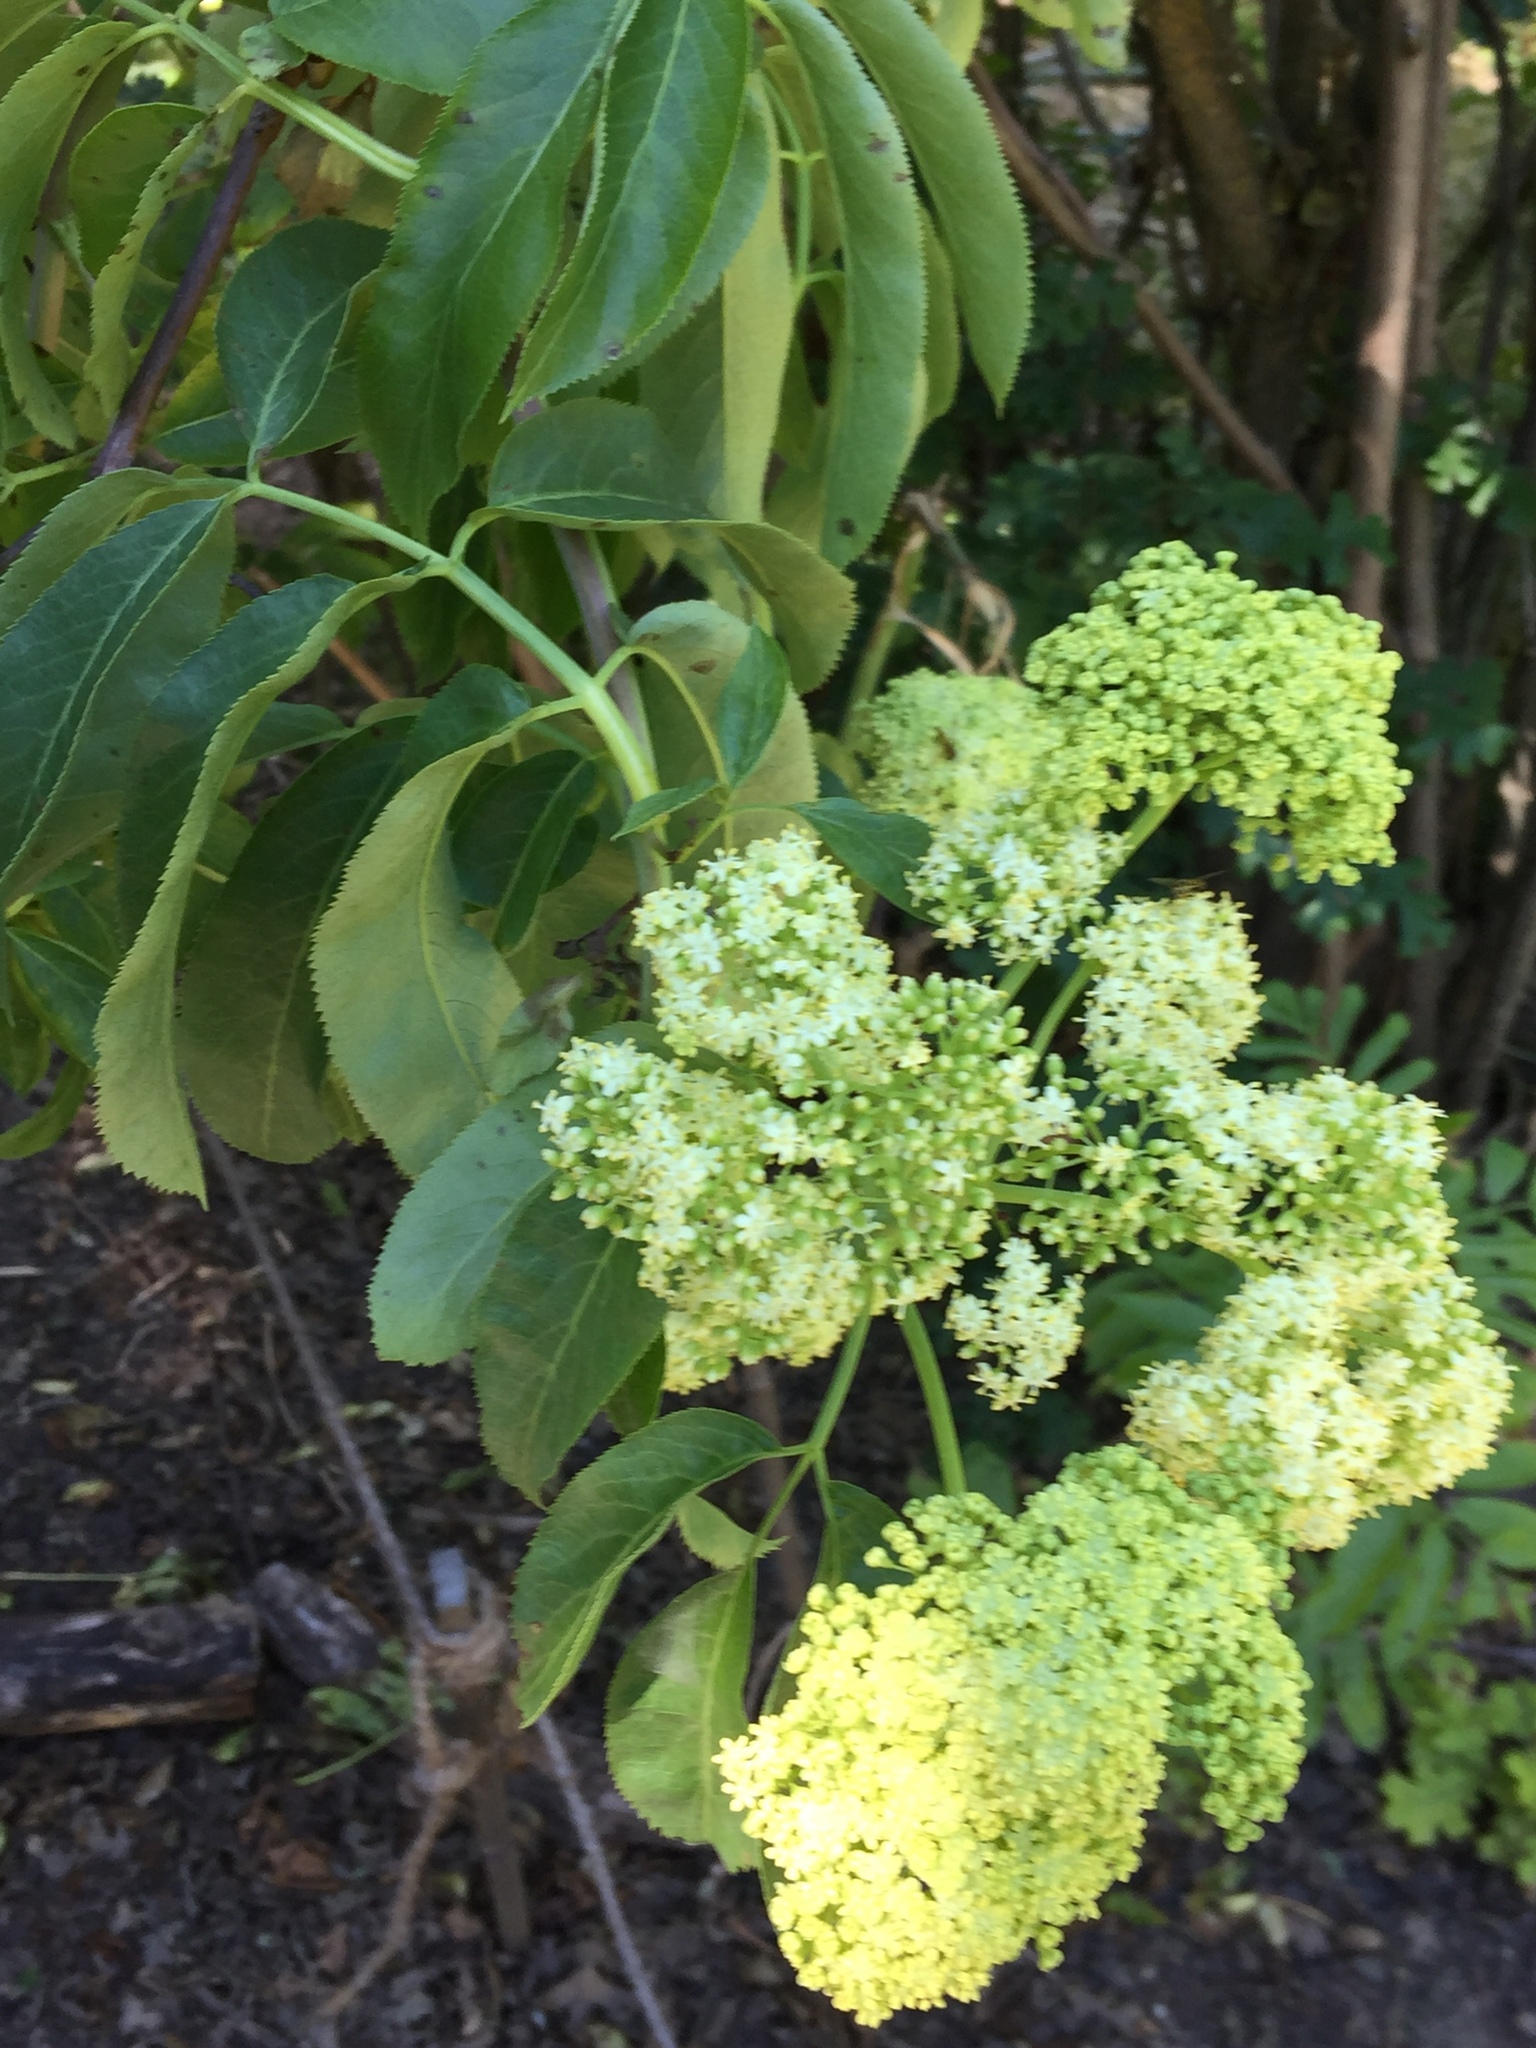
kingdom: Plantae
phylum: Tracheophyta
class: Magnoliopsida
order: Dipsacales
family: Viburnaceae
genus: Sambucus
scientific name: Sambucus cerulea
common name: Blue elder
